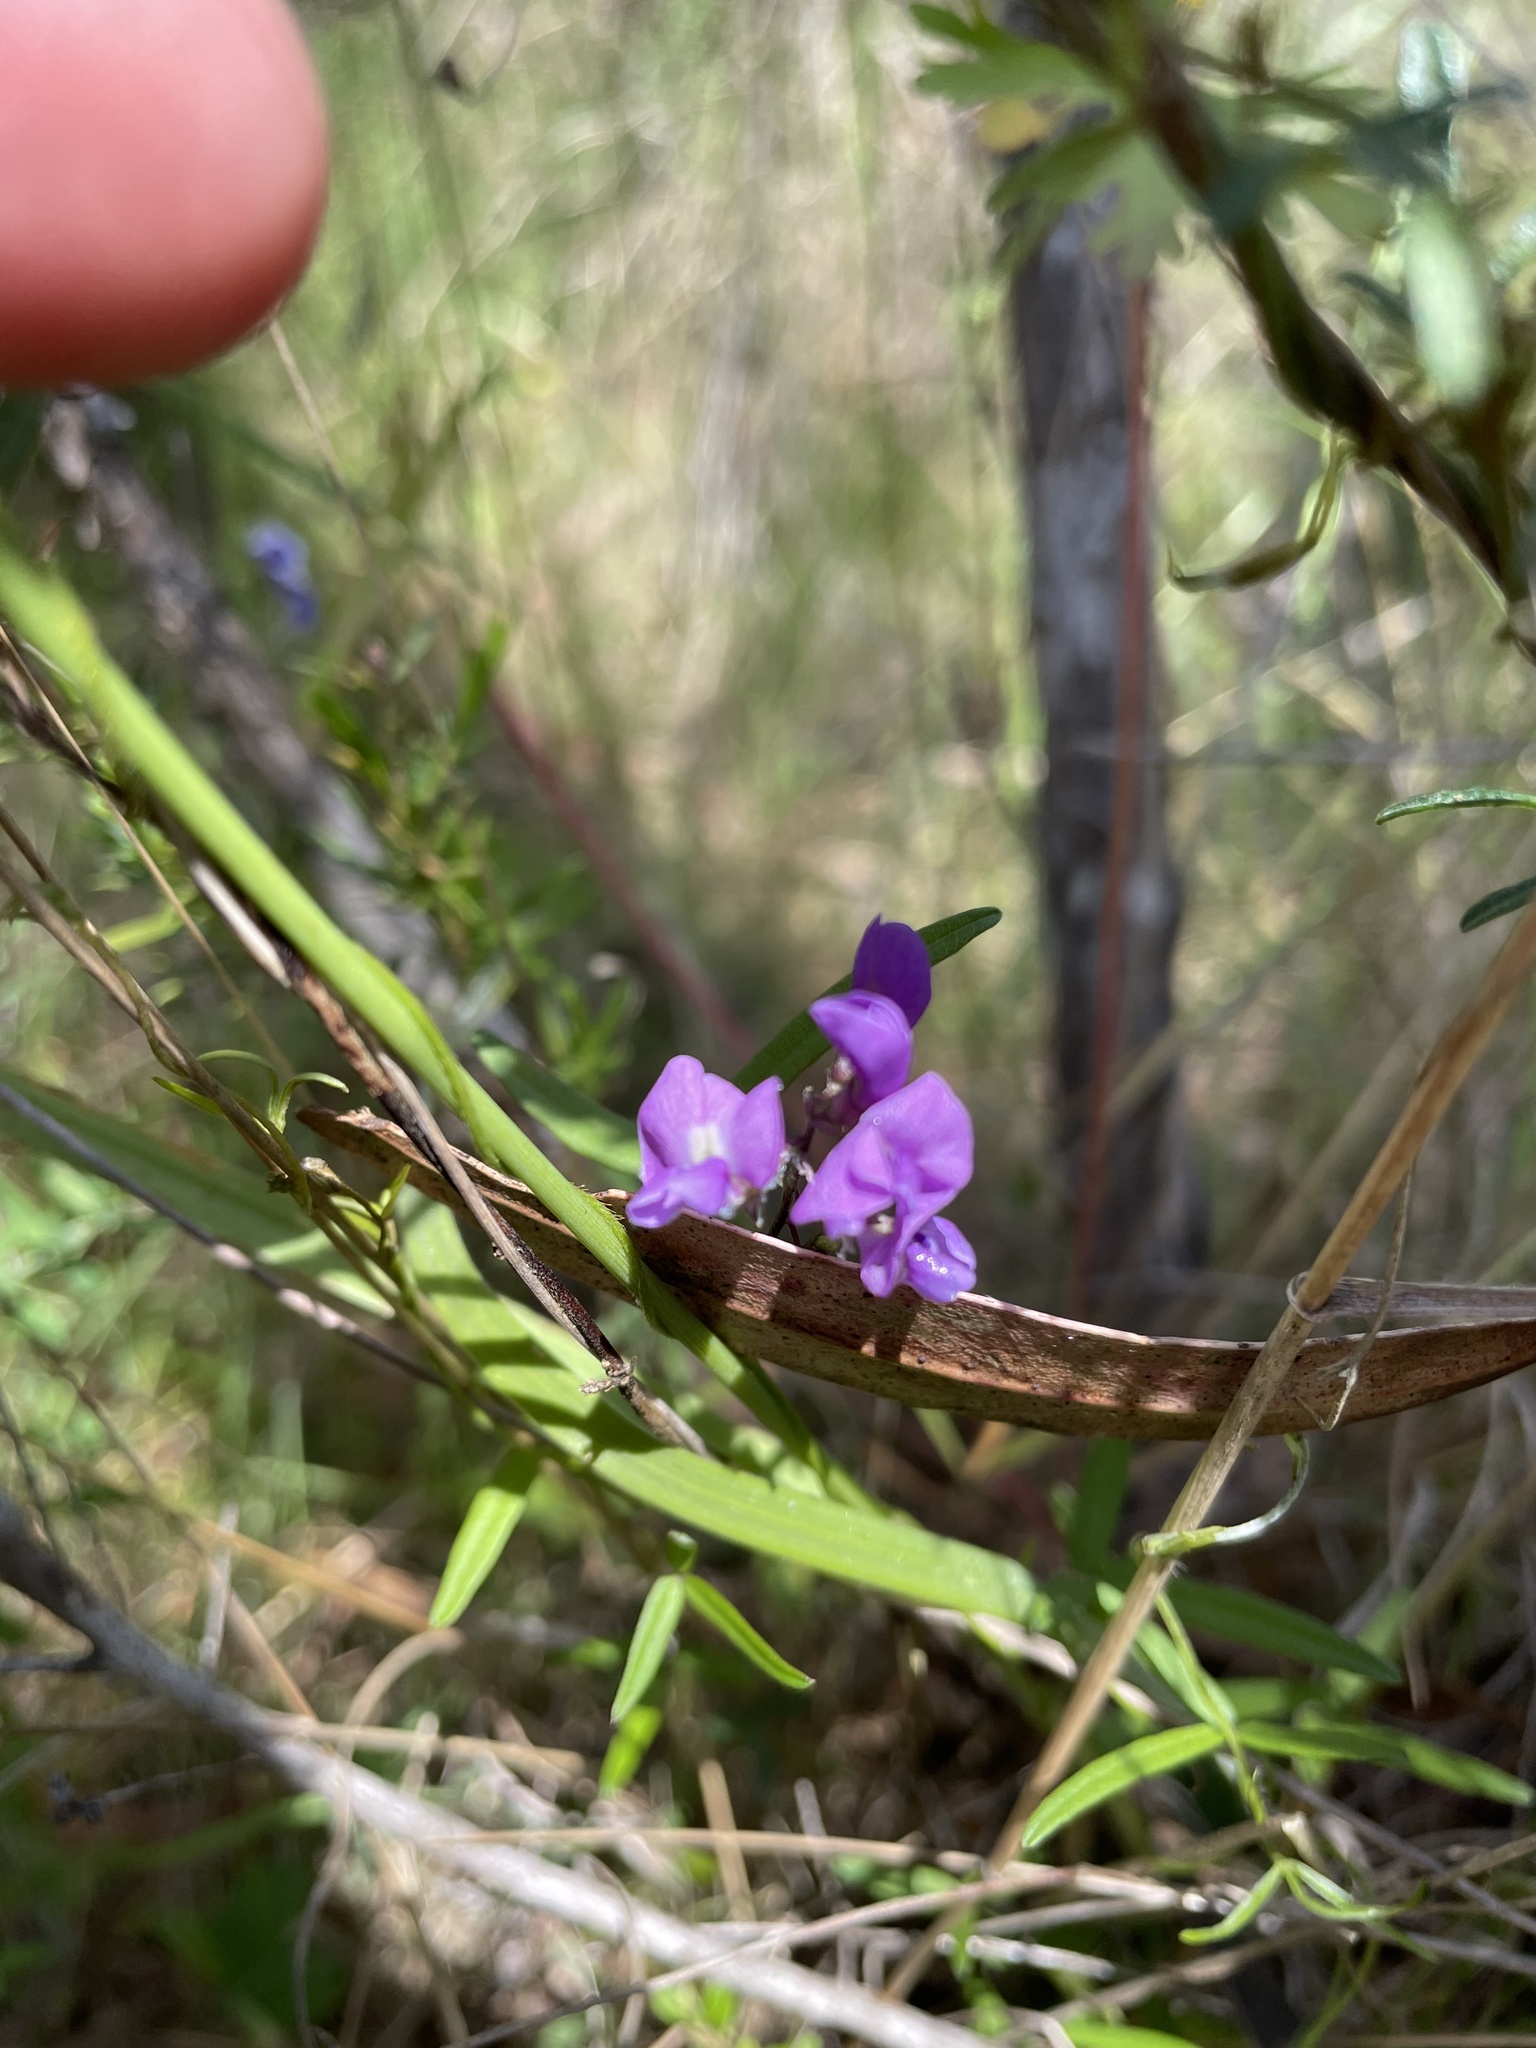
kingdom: Plantae
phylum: Tracheophyta
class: Magnoliopsida
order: Fabales
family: Fabaceae
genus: Glycine
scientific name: Glycine clandestina
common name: Twining glycine
